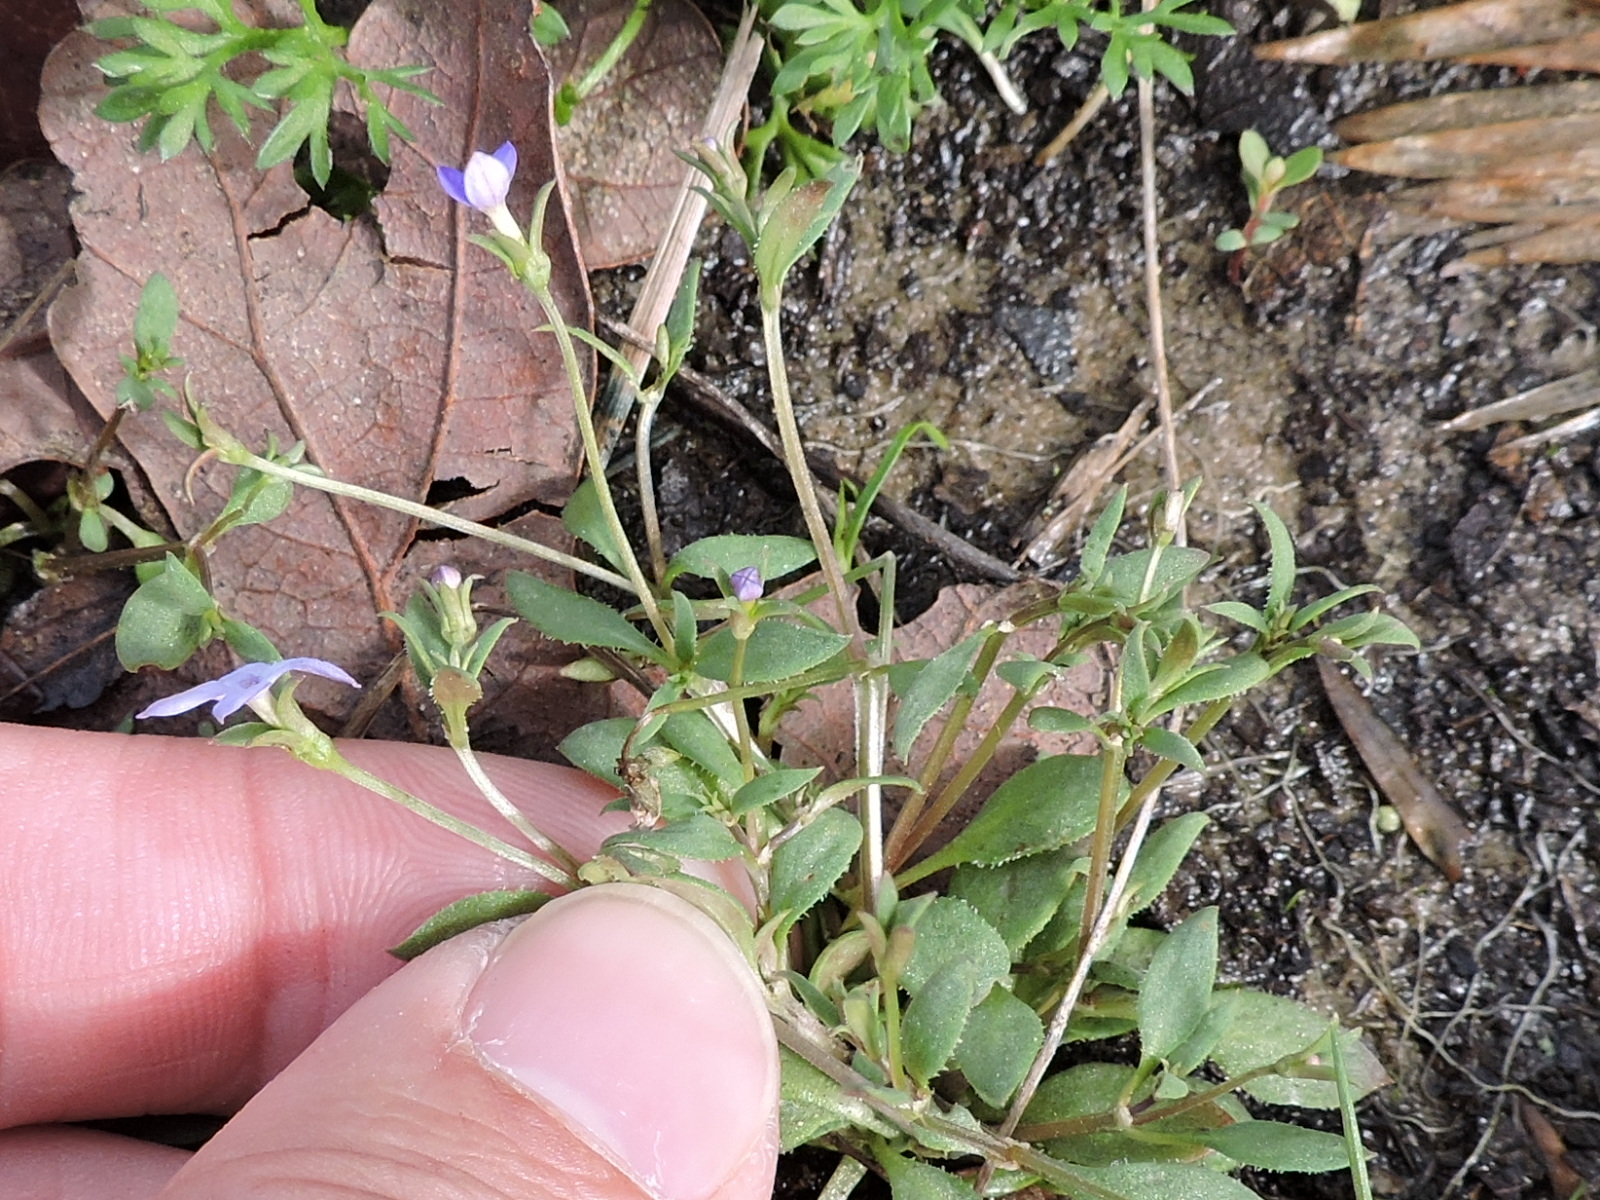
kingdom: Plantae
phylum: Tracheophyta
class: Magnoliopsida
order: Gentianales
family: Rubiaceae
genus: Houstonia
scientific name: Houstonia pusilla
